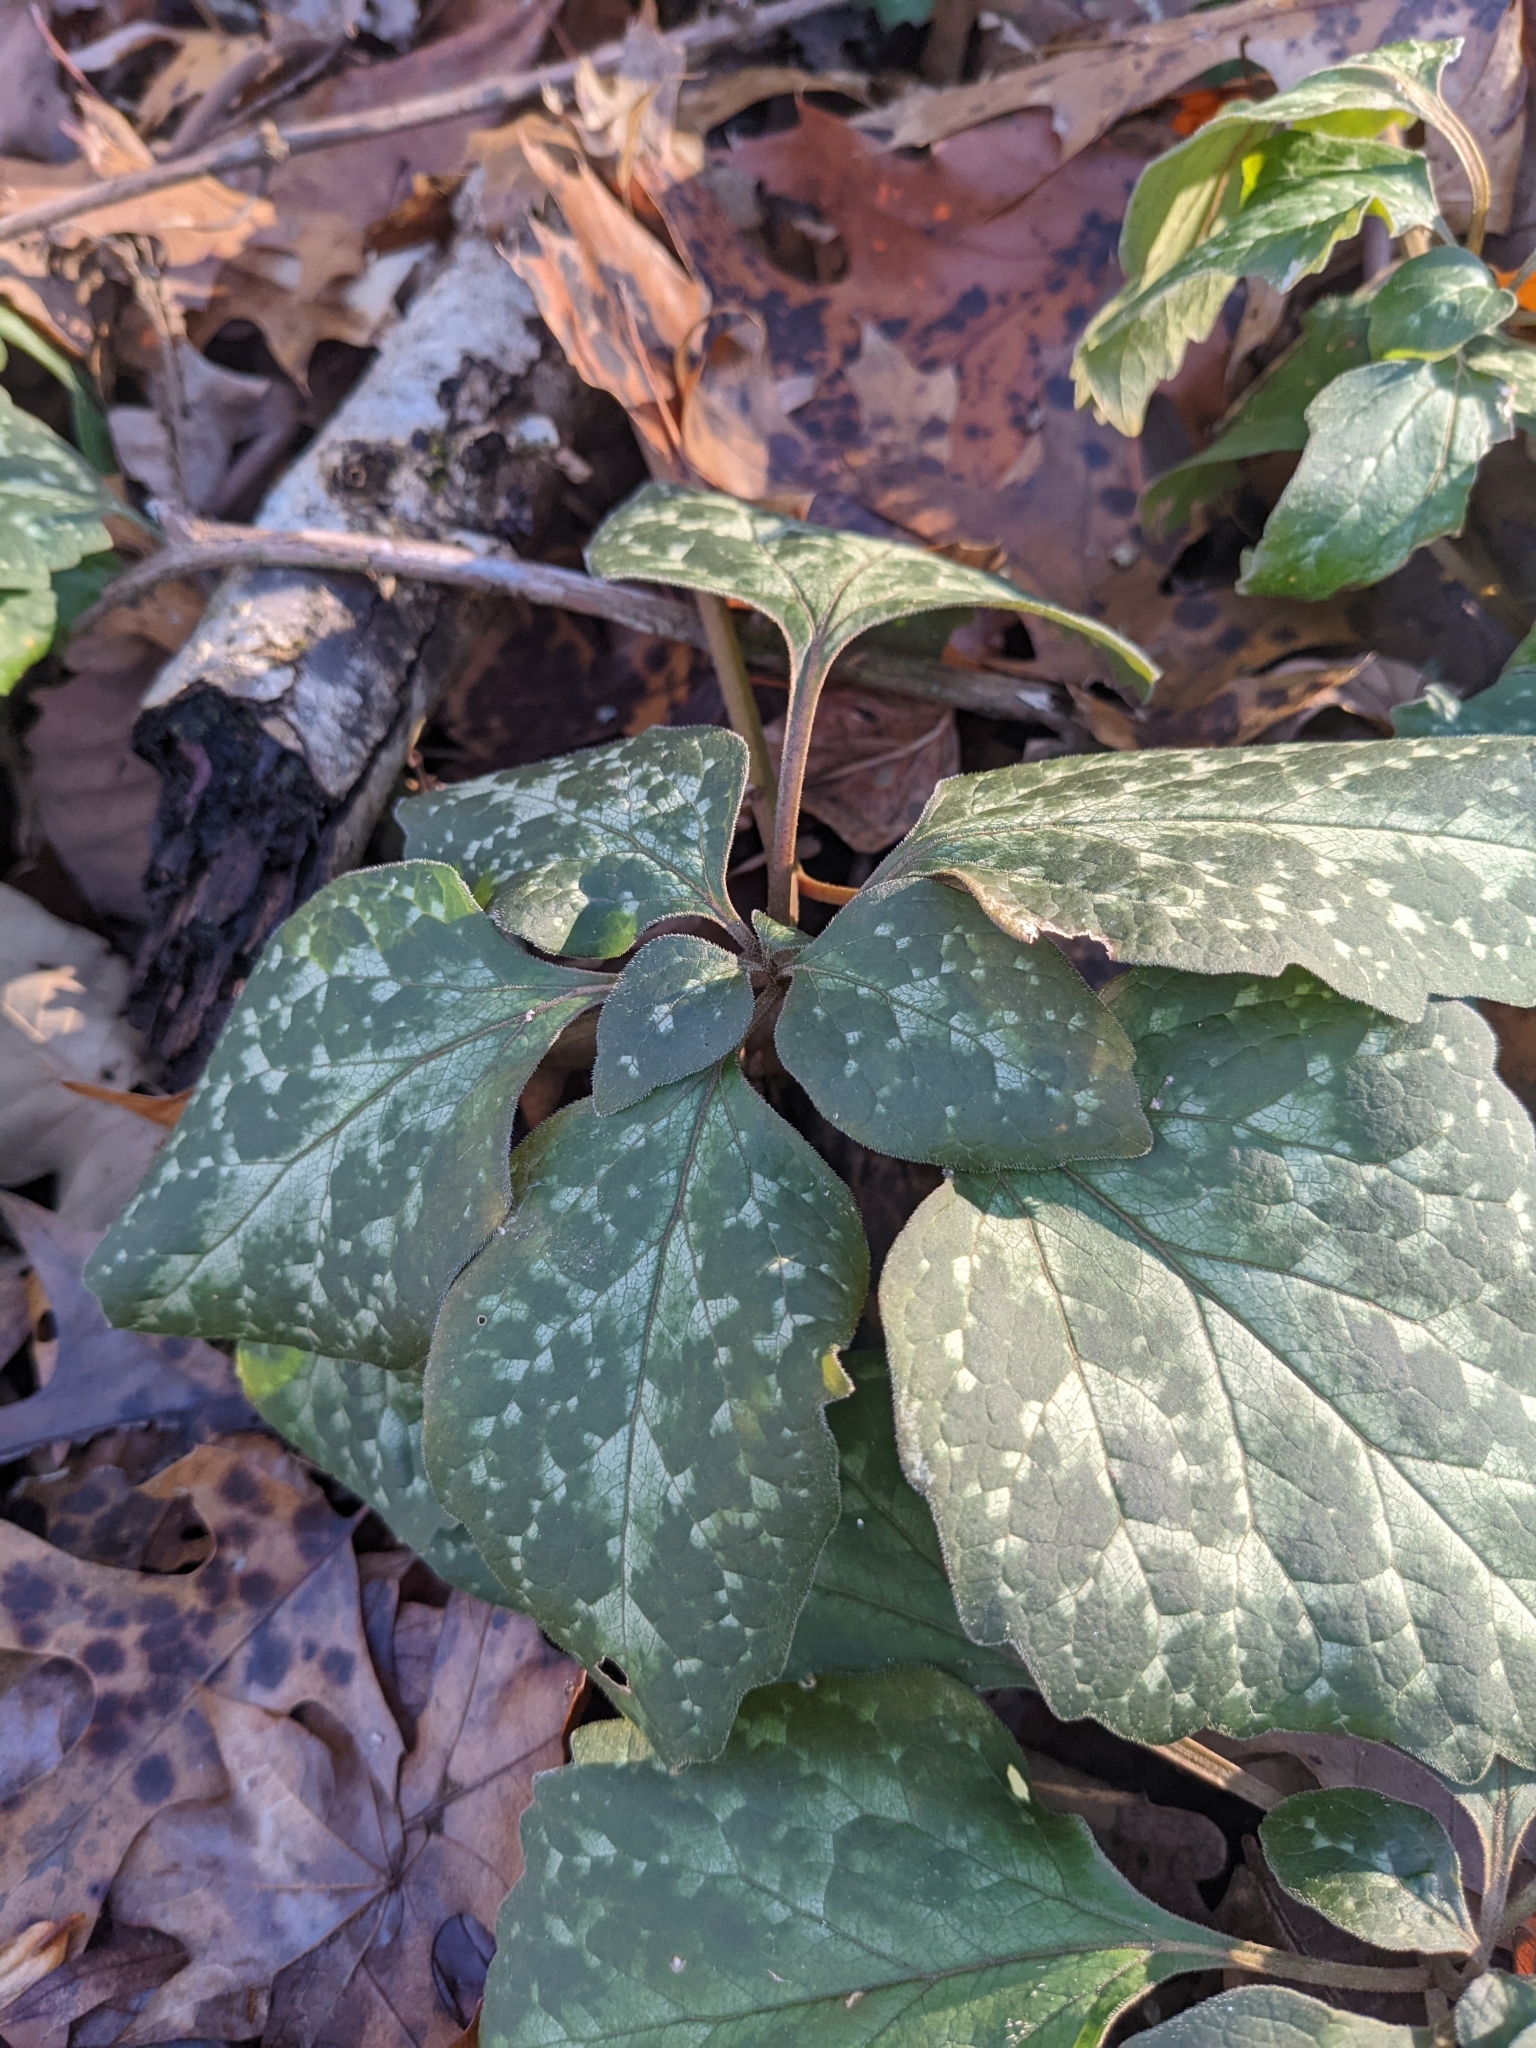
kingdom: Plantae
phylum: Tracheophyta
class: Magnoliopsida
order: Buxales
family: Buxaceae
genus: Pachysandra
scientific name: Pachysandra procumbens
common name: Mountain-spurge
